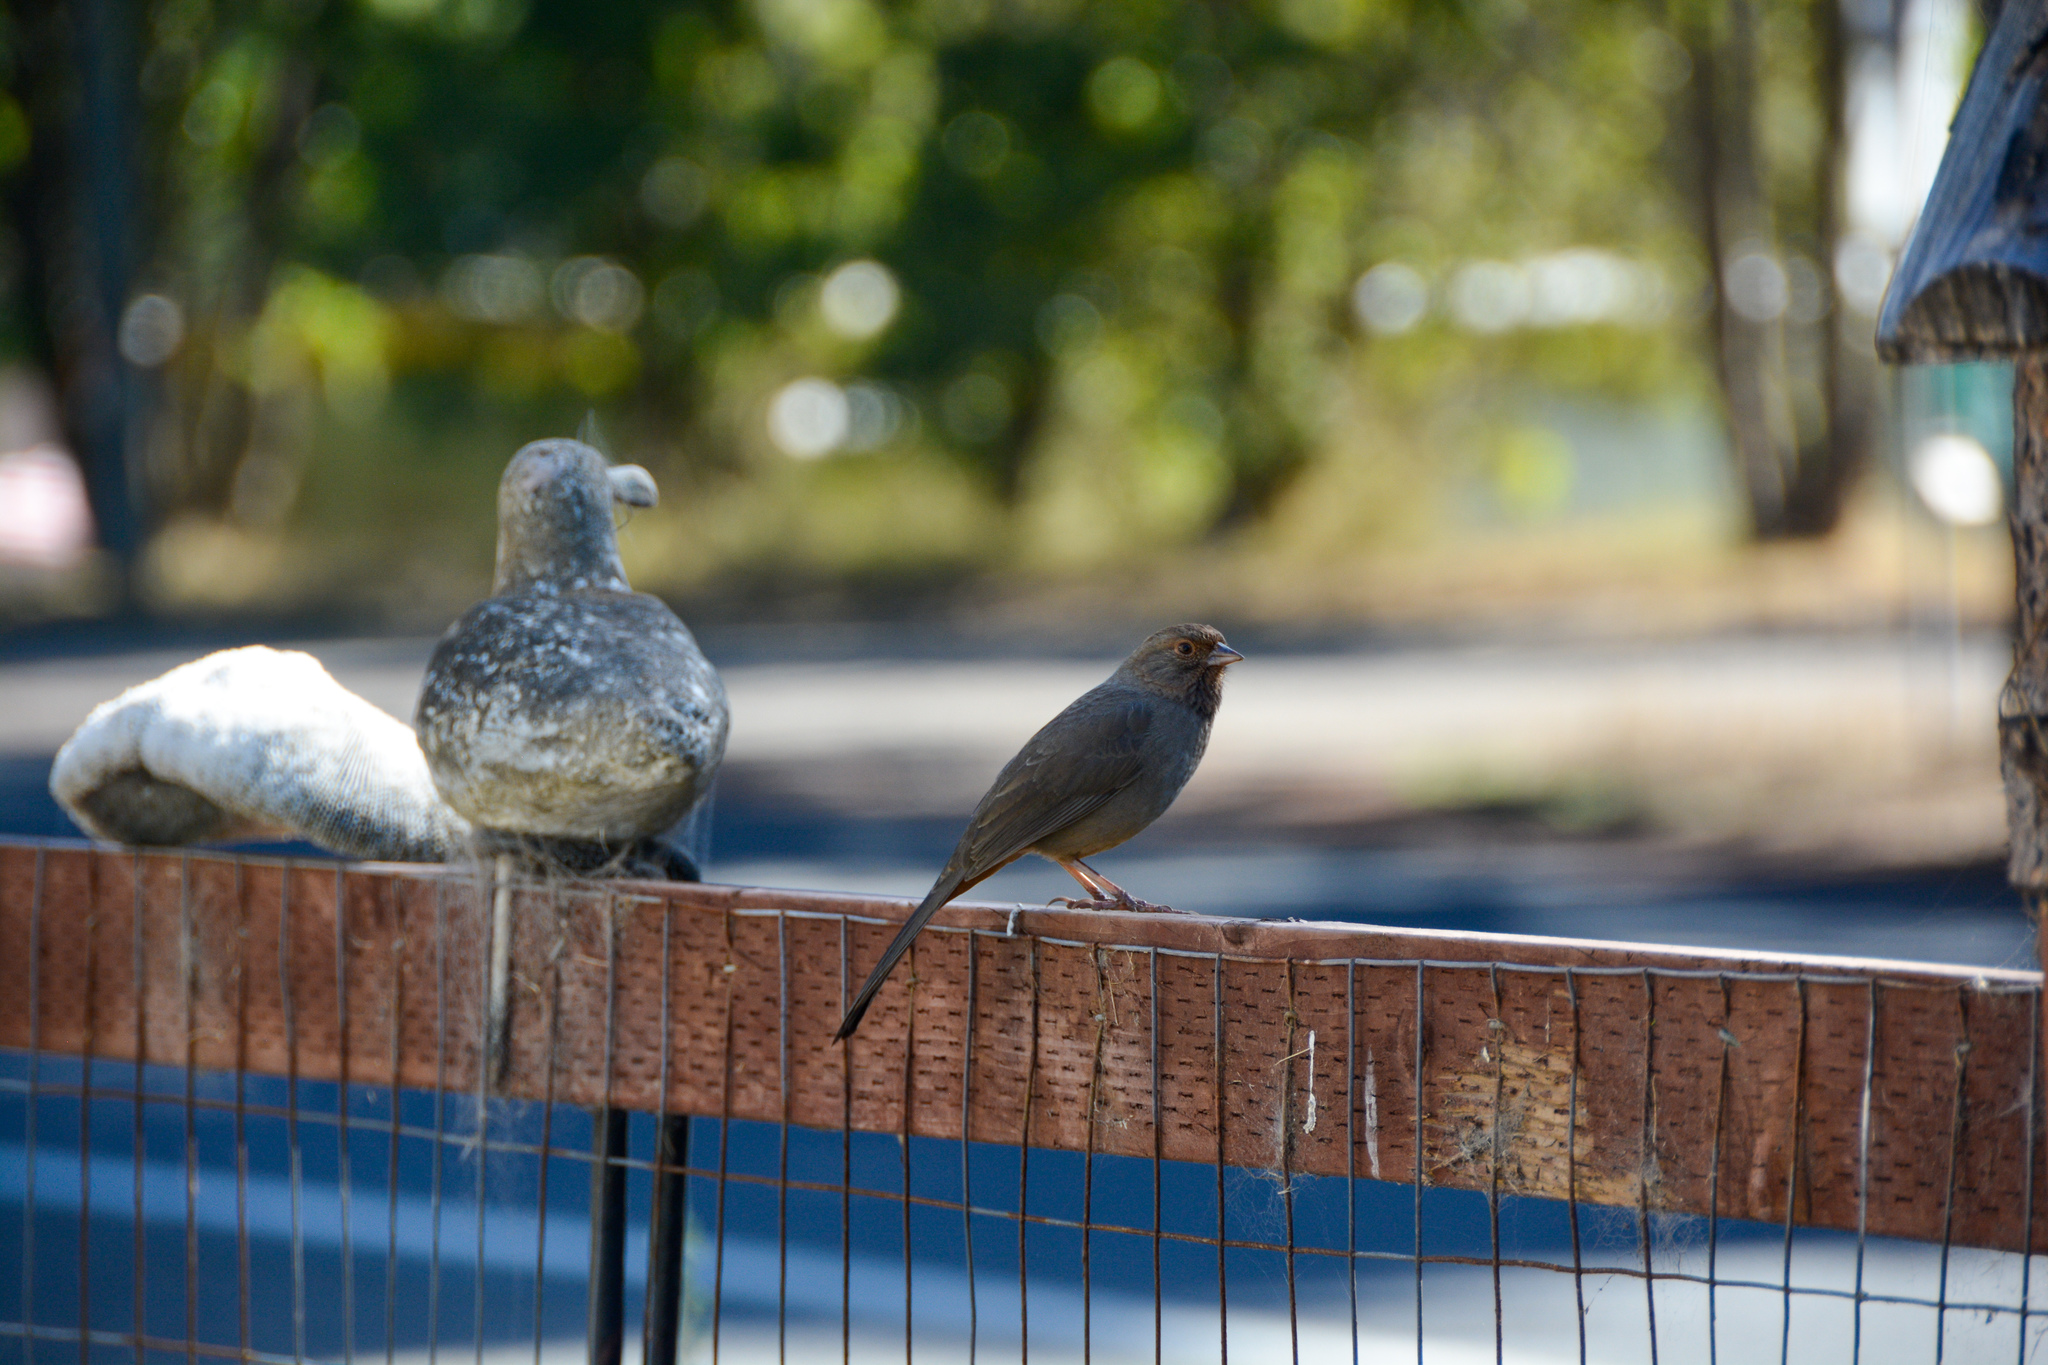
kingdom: Animalia
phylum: Chordata
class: Aves
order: Passeriformes
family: Passerellidae
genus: Melozone
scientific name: Melozone crissalis
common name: California towhee
